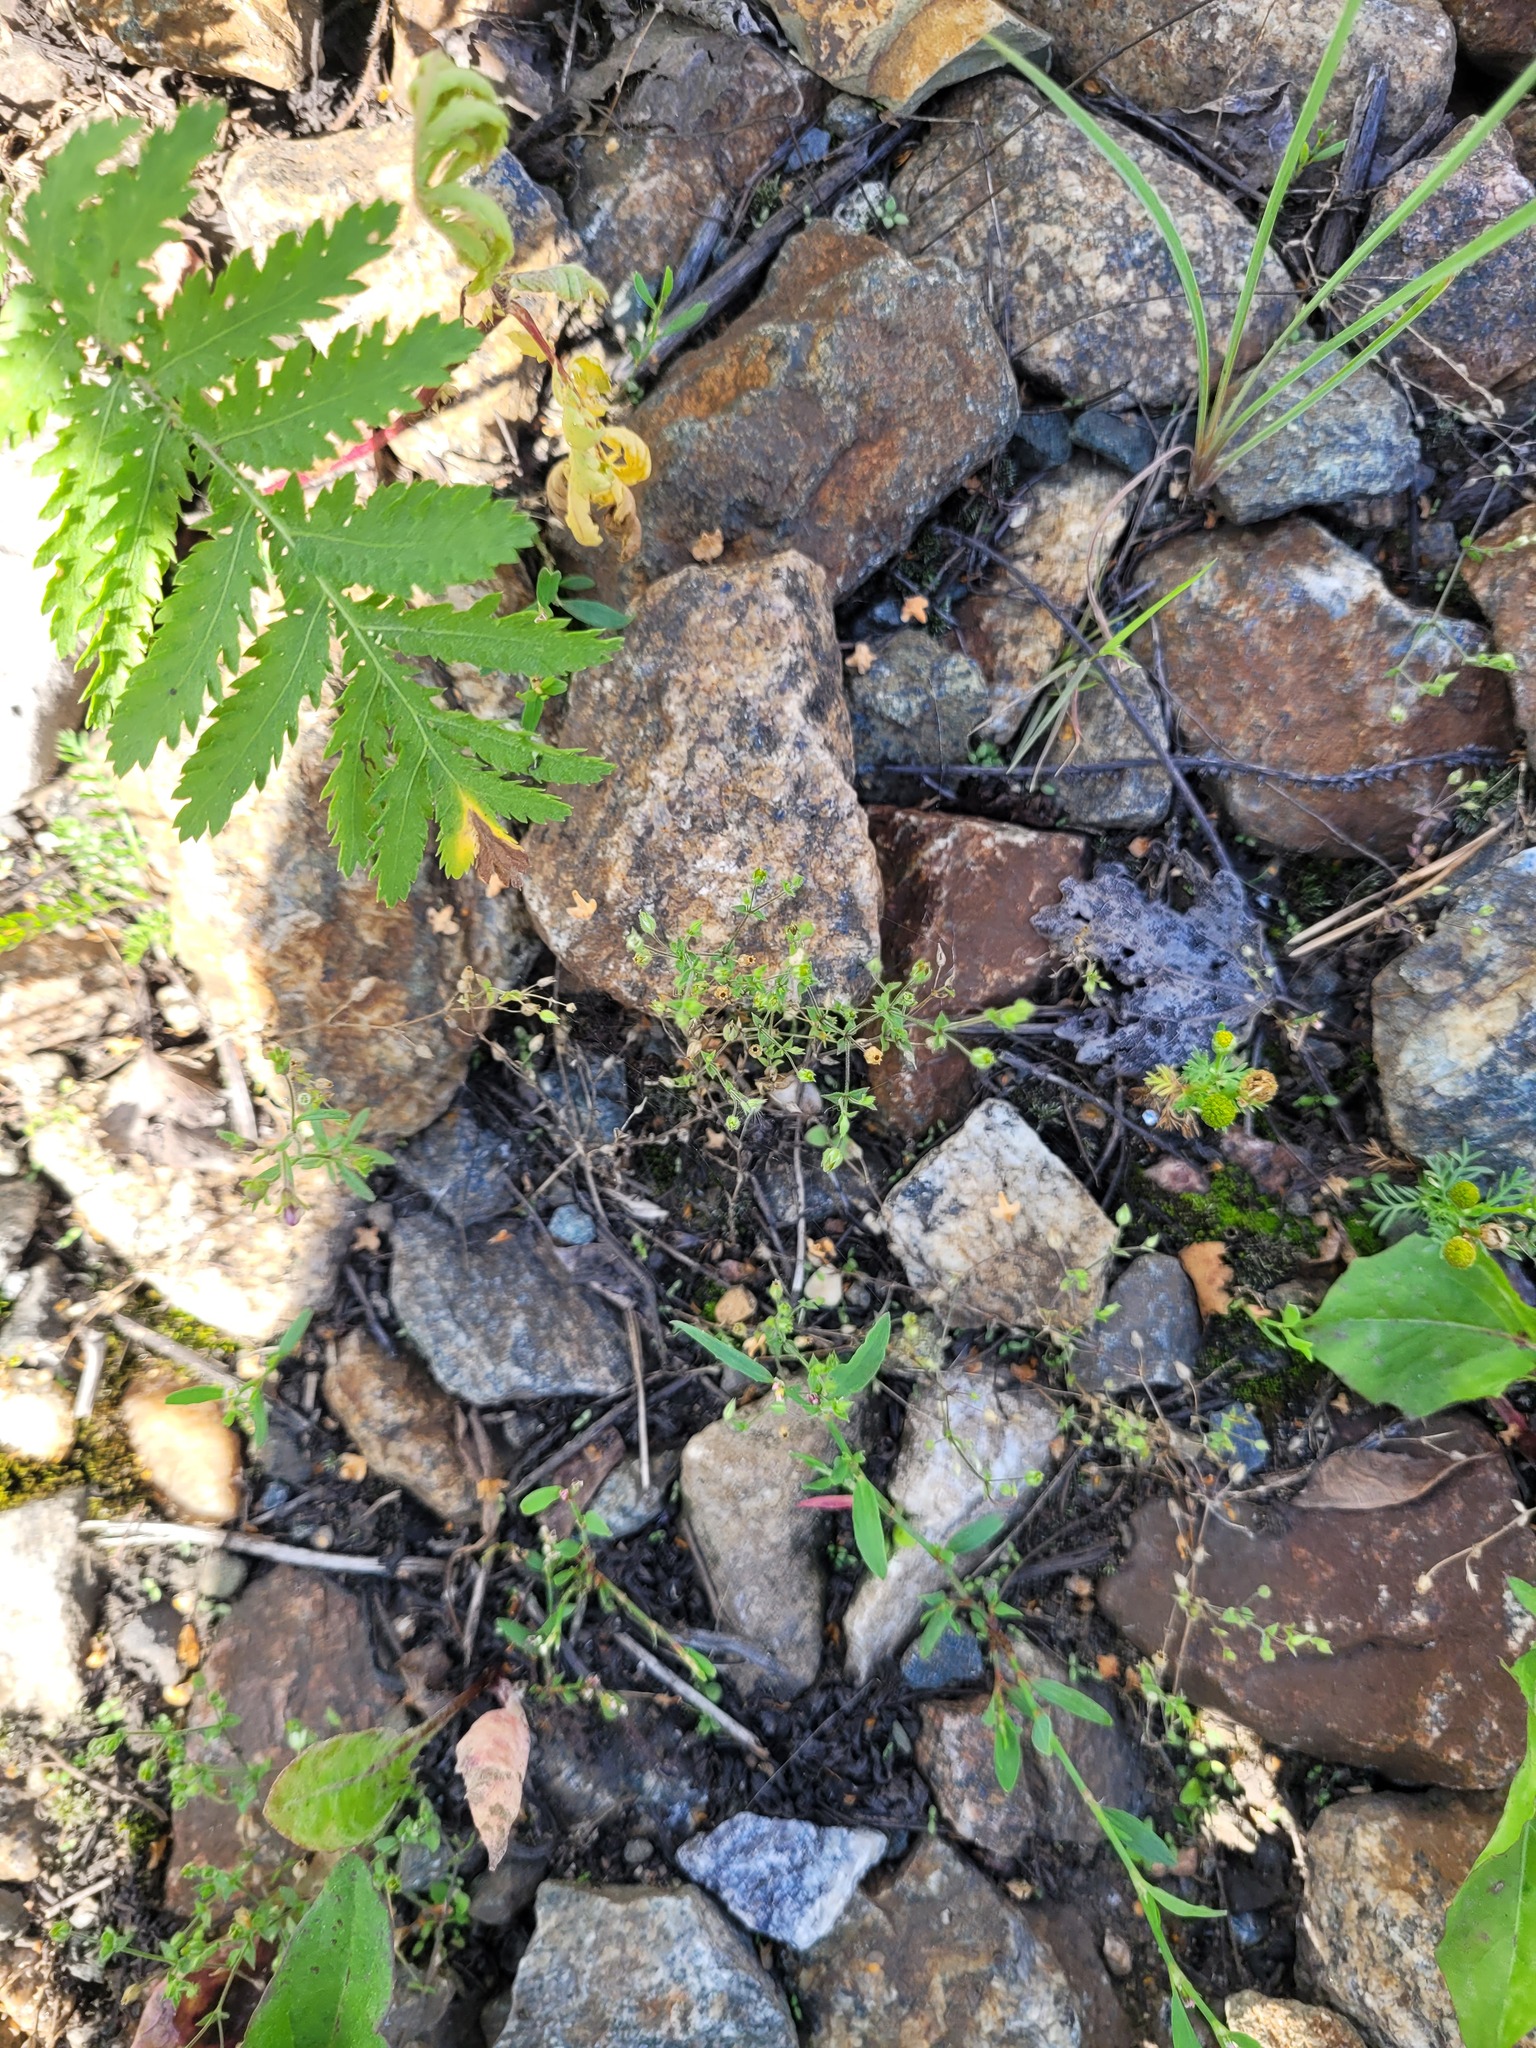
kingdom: Plantae
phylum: Tracheophyta
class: Magnoliopsida
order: Caryophyllales
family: Caryophyllaceae
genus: Arenaria
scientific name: Arenaria serpyllifolia
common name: Thyme-leaved sandwort
